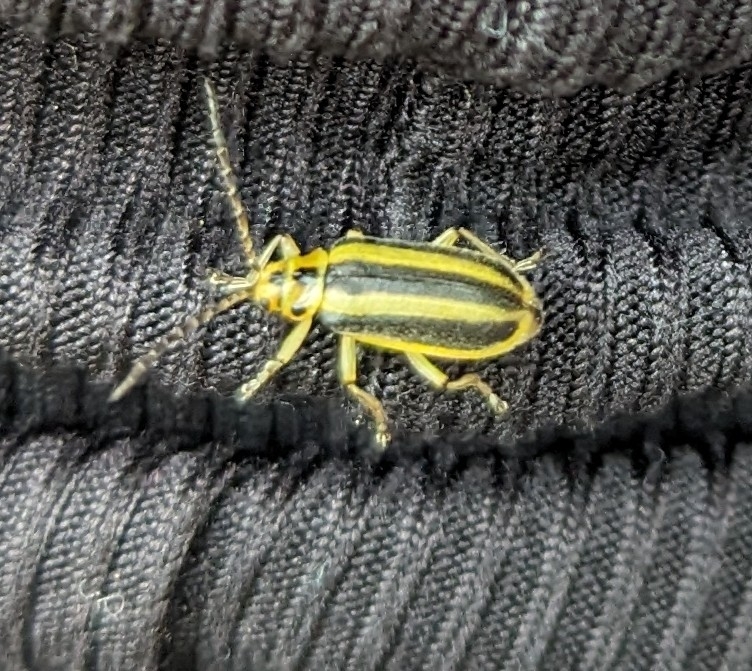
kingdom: Animalia
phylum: Arthropoda
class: Insecta
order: Coleoptera
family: Chrysomelidae
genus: Trirhabda
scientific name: Trirhabda canadensis
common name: Goldenrod leaf beetle
